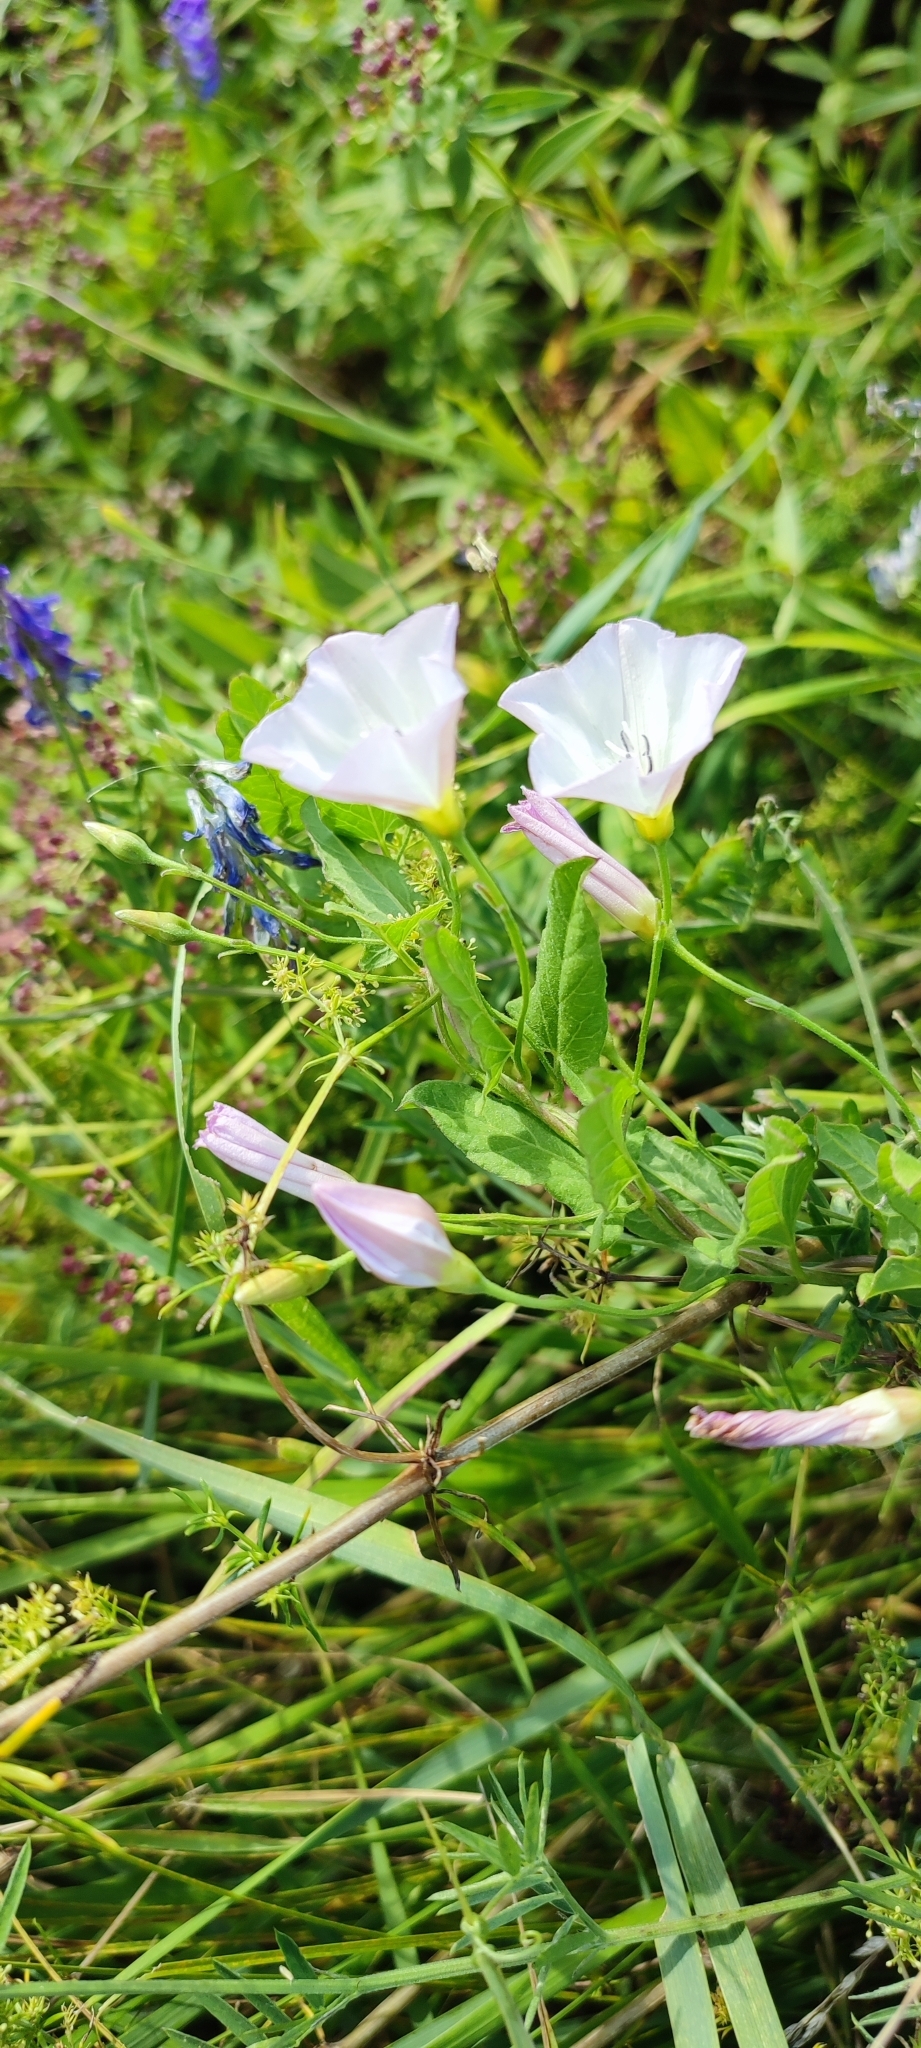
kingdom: Plantae
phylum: Tracheophyta
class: Magnoliopsida
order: Solanales
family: Convolvulaceae
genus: Convolvulus
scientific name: Convolvulus arvensis
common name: Field bindweed
